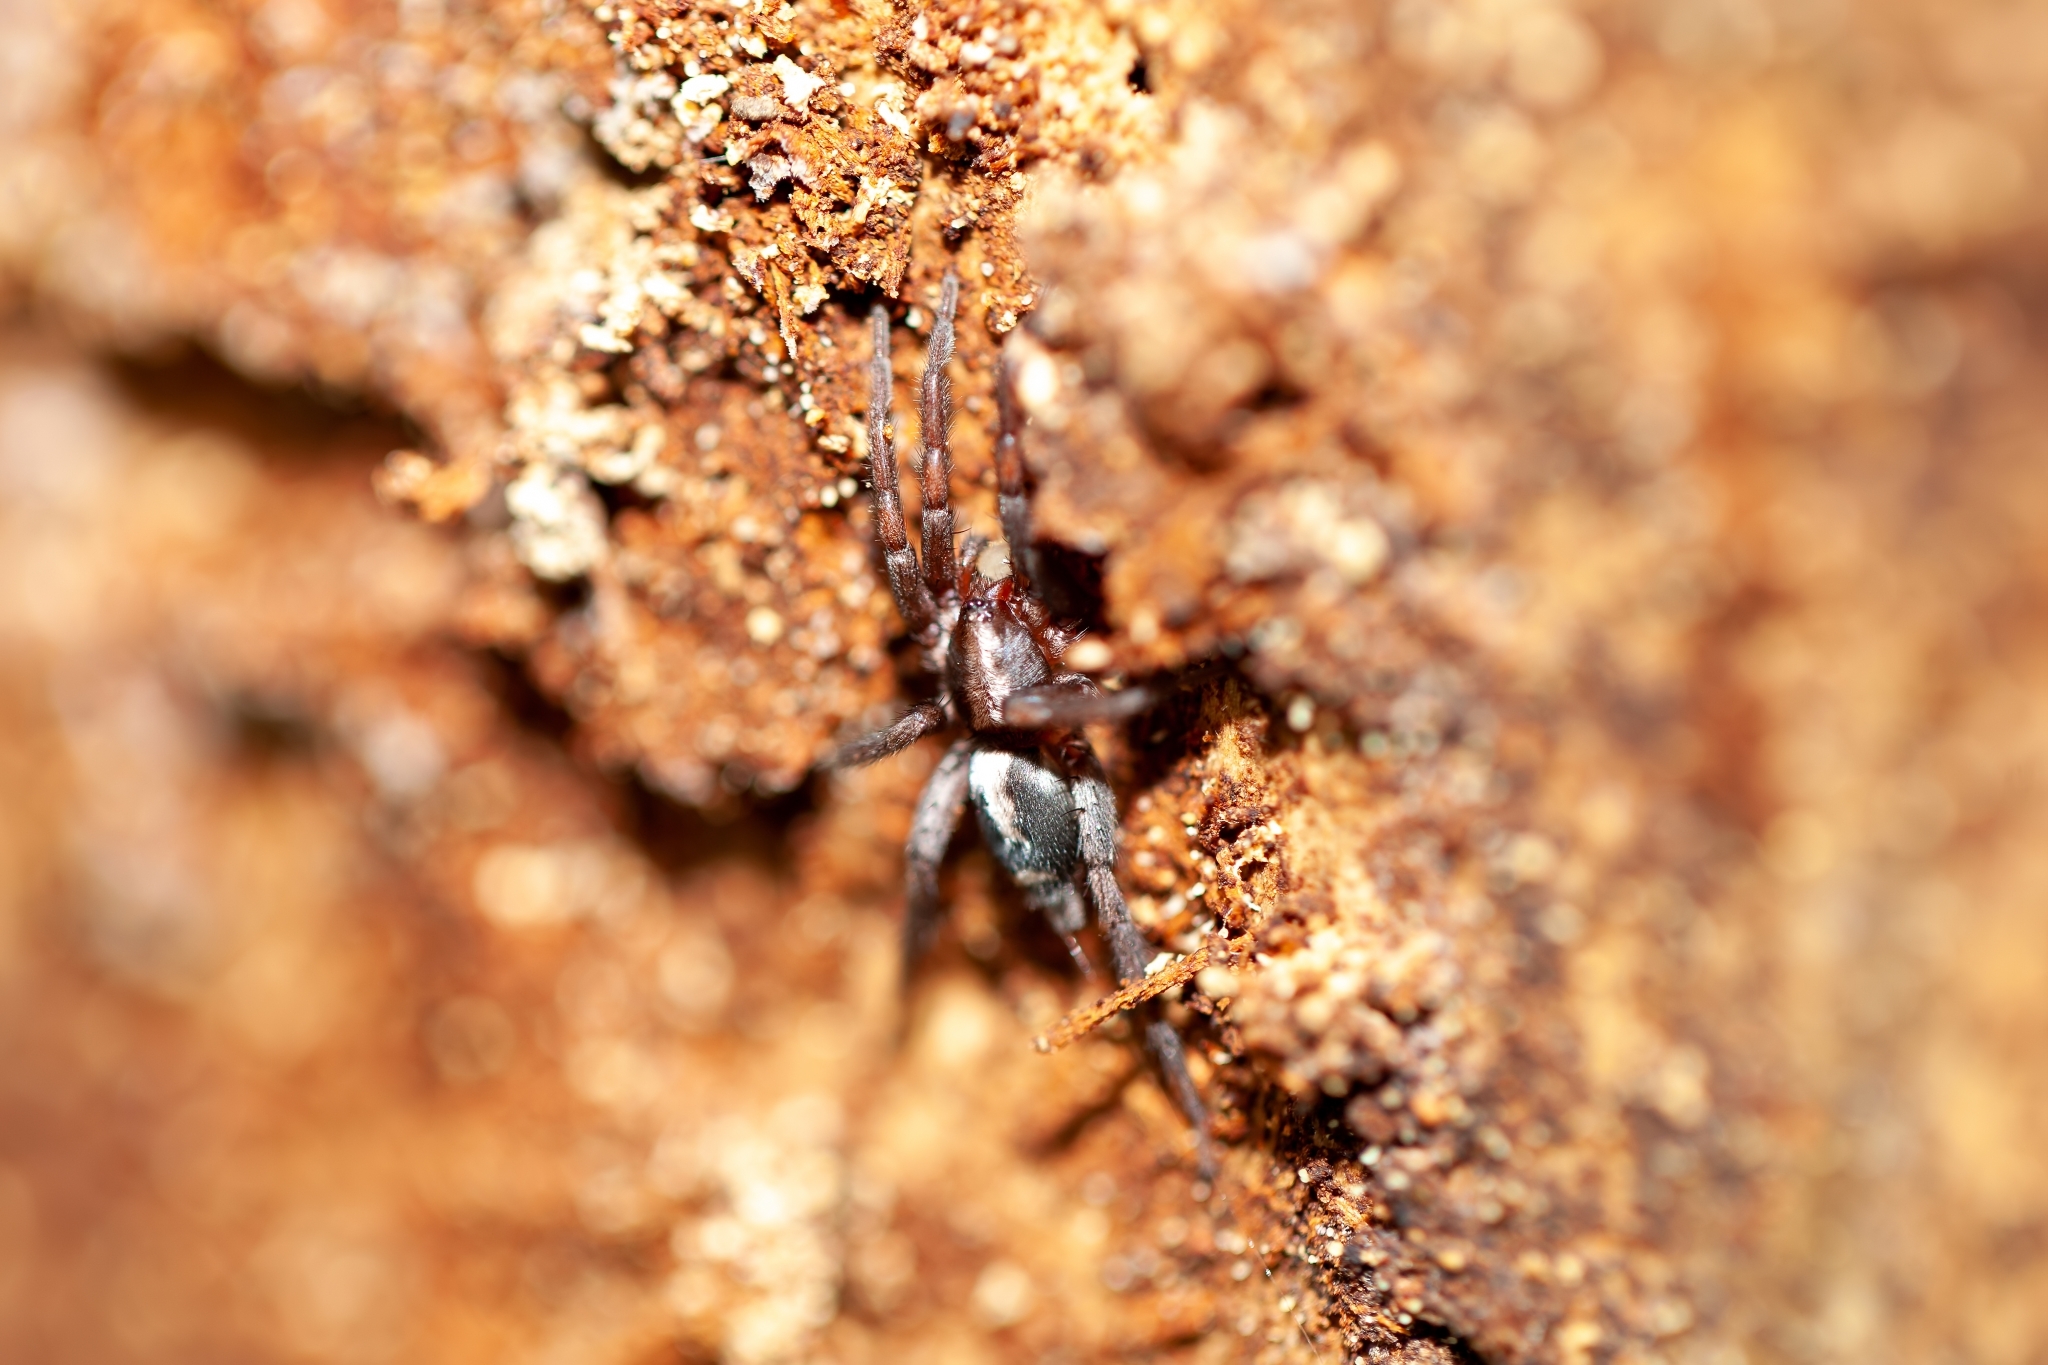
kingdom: Animalia
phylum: Arthropoda
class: Arachnida
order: Araneae
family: Gnaphosidae
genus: Herpyllus
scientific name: Herpyllus ecclesiasticus
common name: Eastern parson spider
